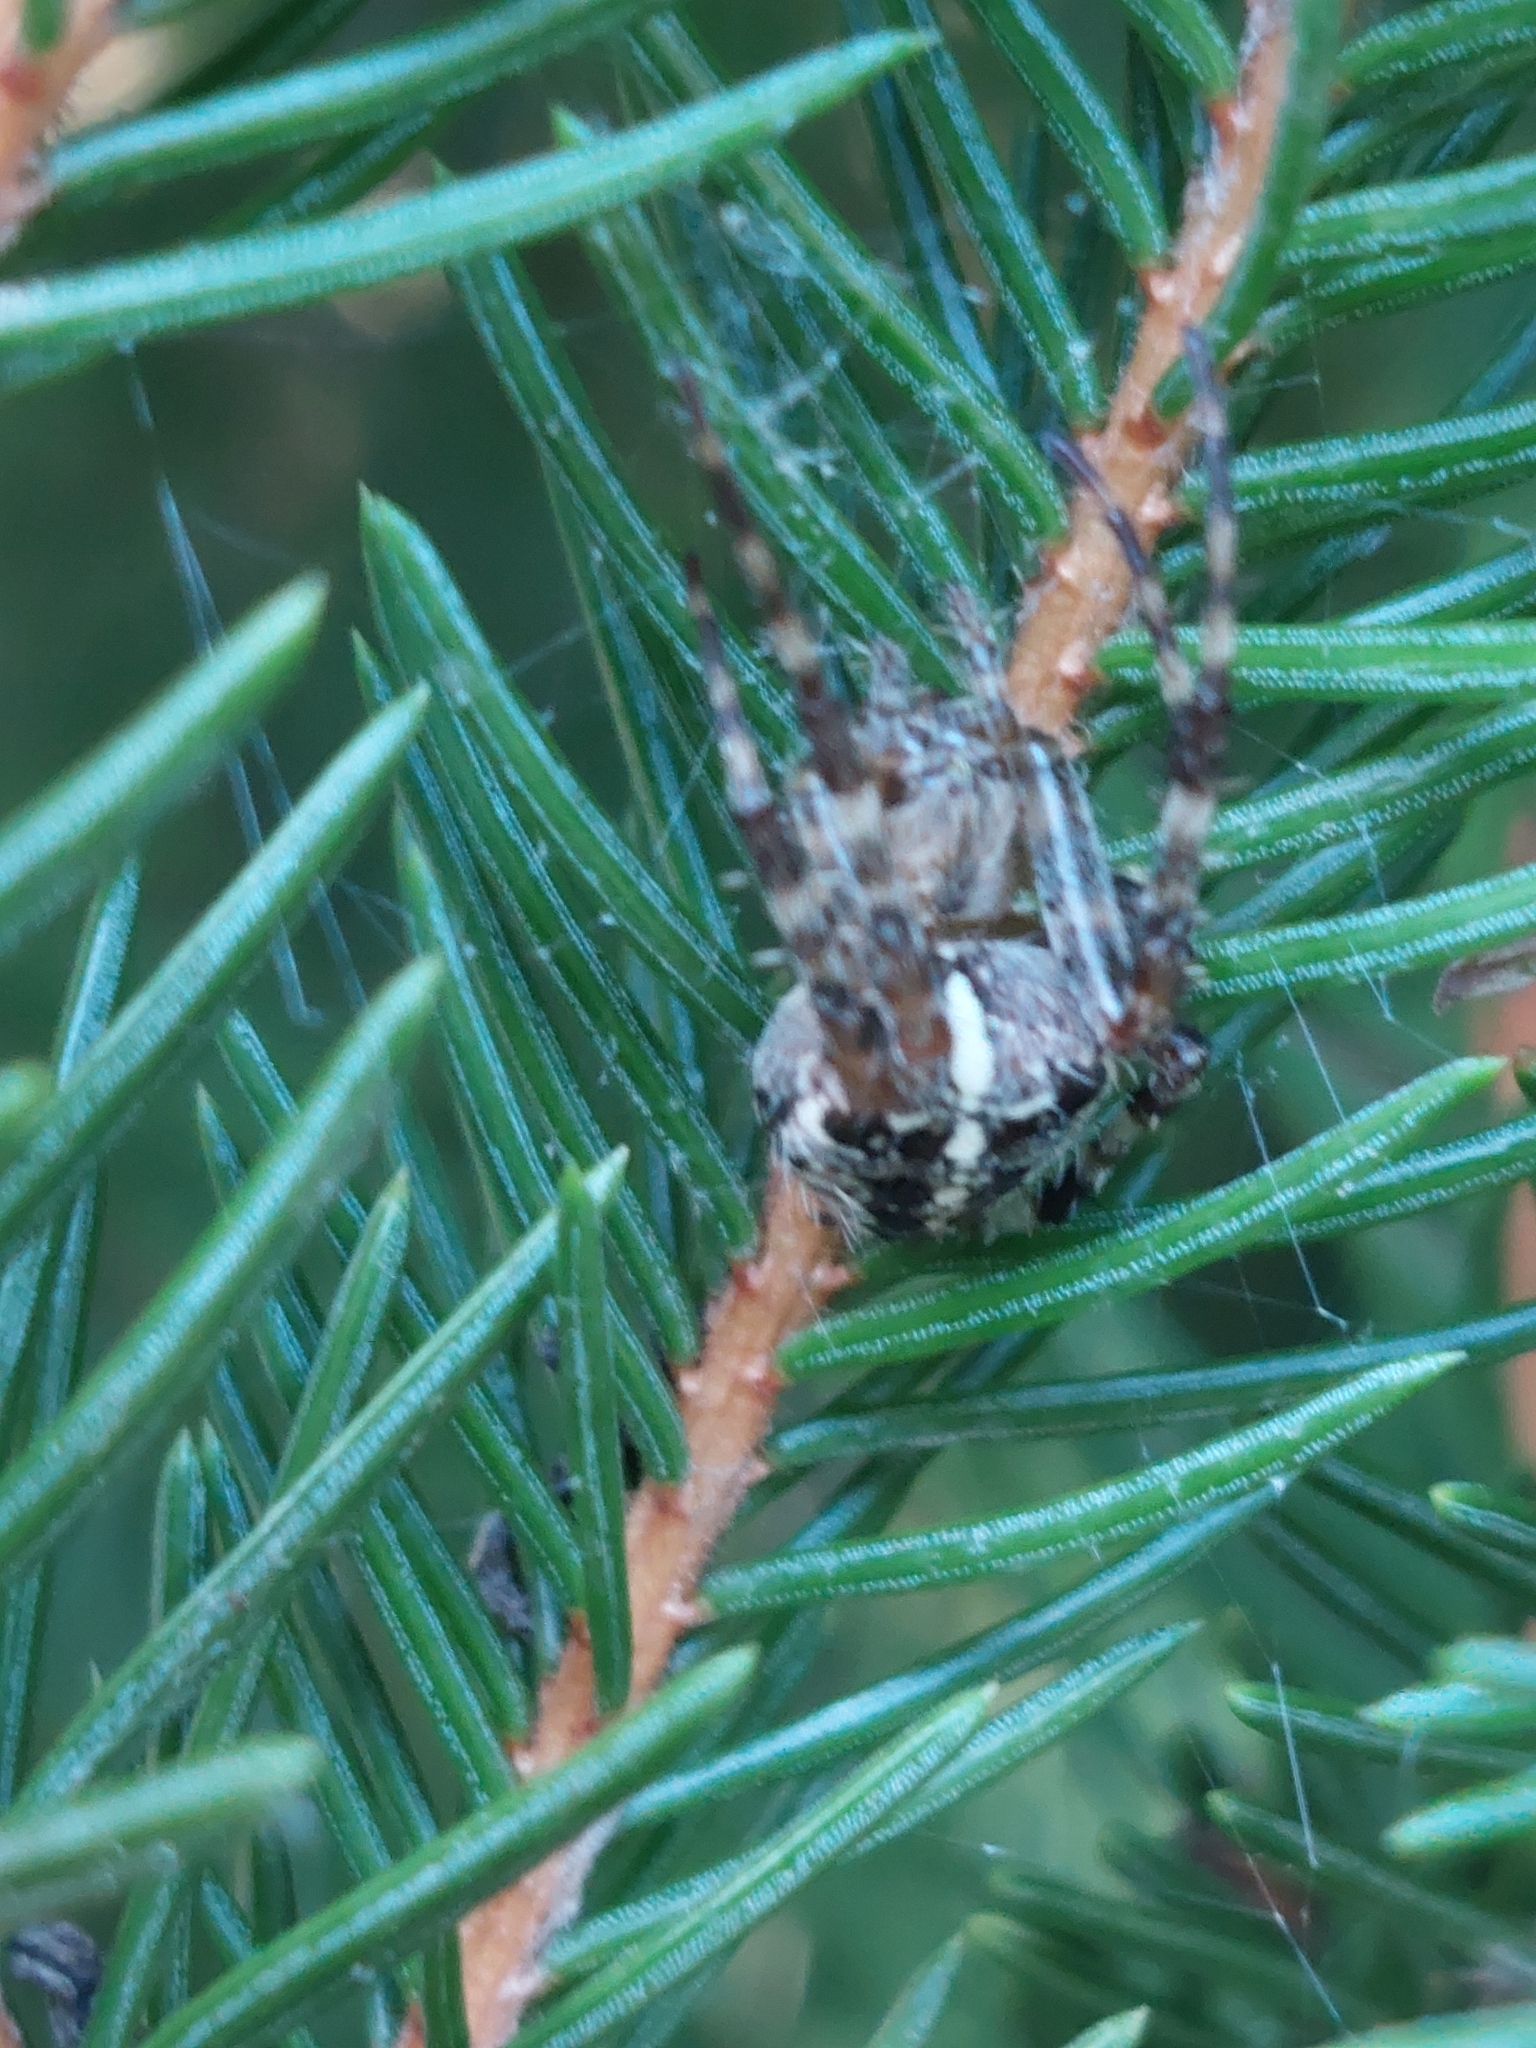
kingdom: Animalia
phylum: Arthropoda
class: Arachnida
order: Araneae
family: Araneidae
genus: Araneus
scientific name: Araneus diadematus
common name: Cross orbweaver
